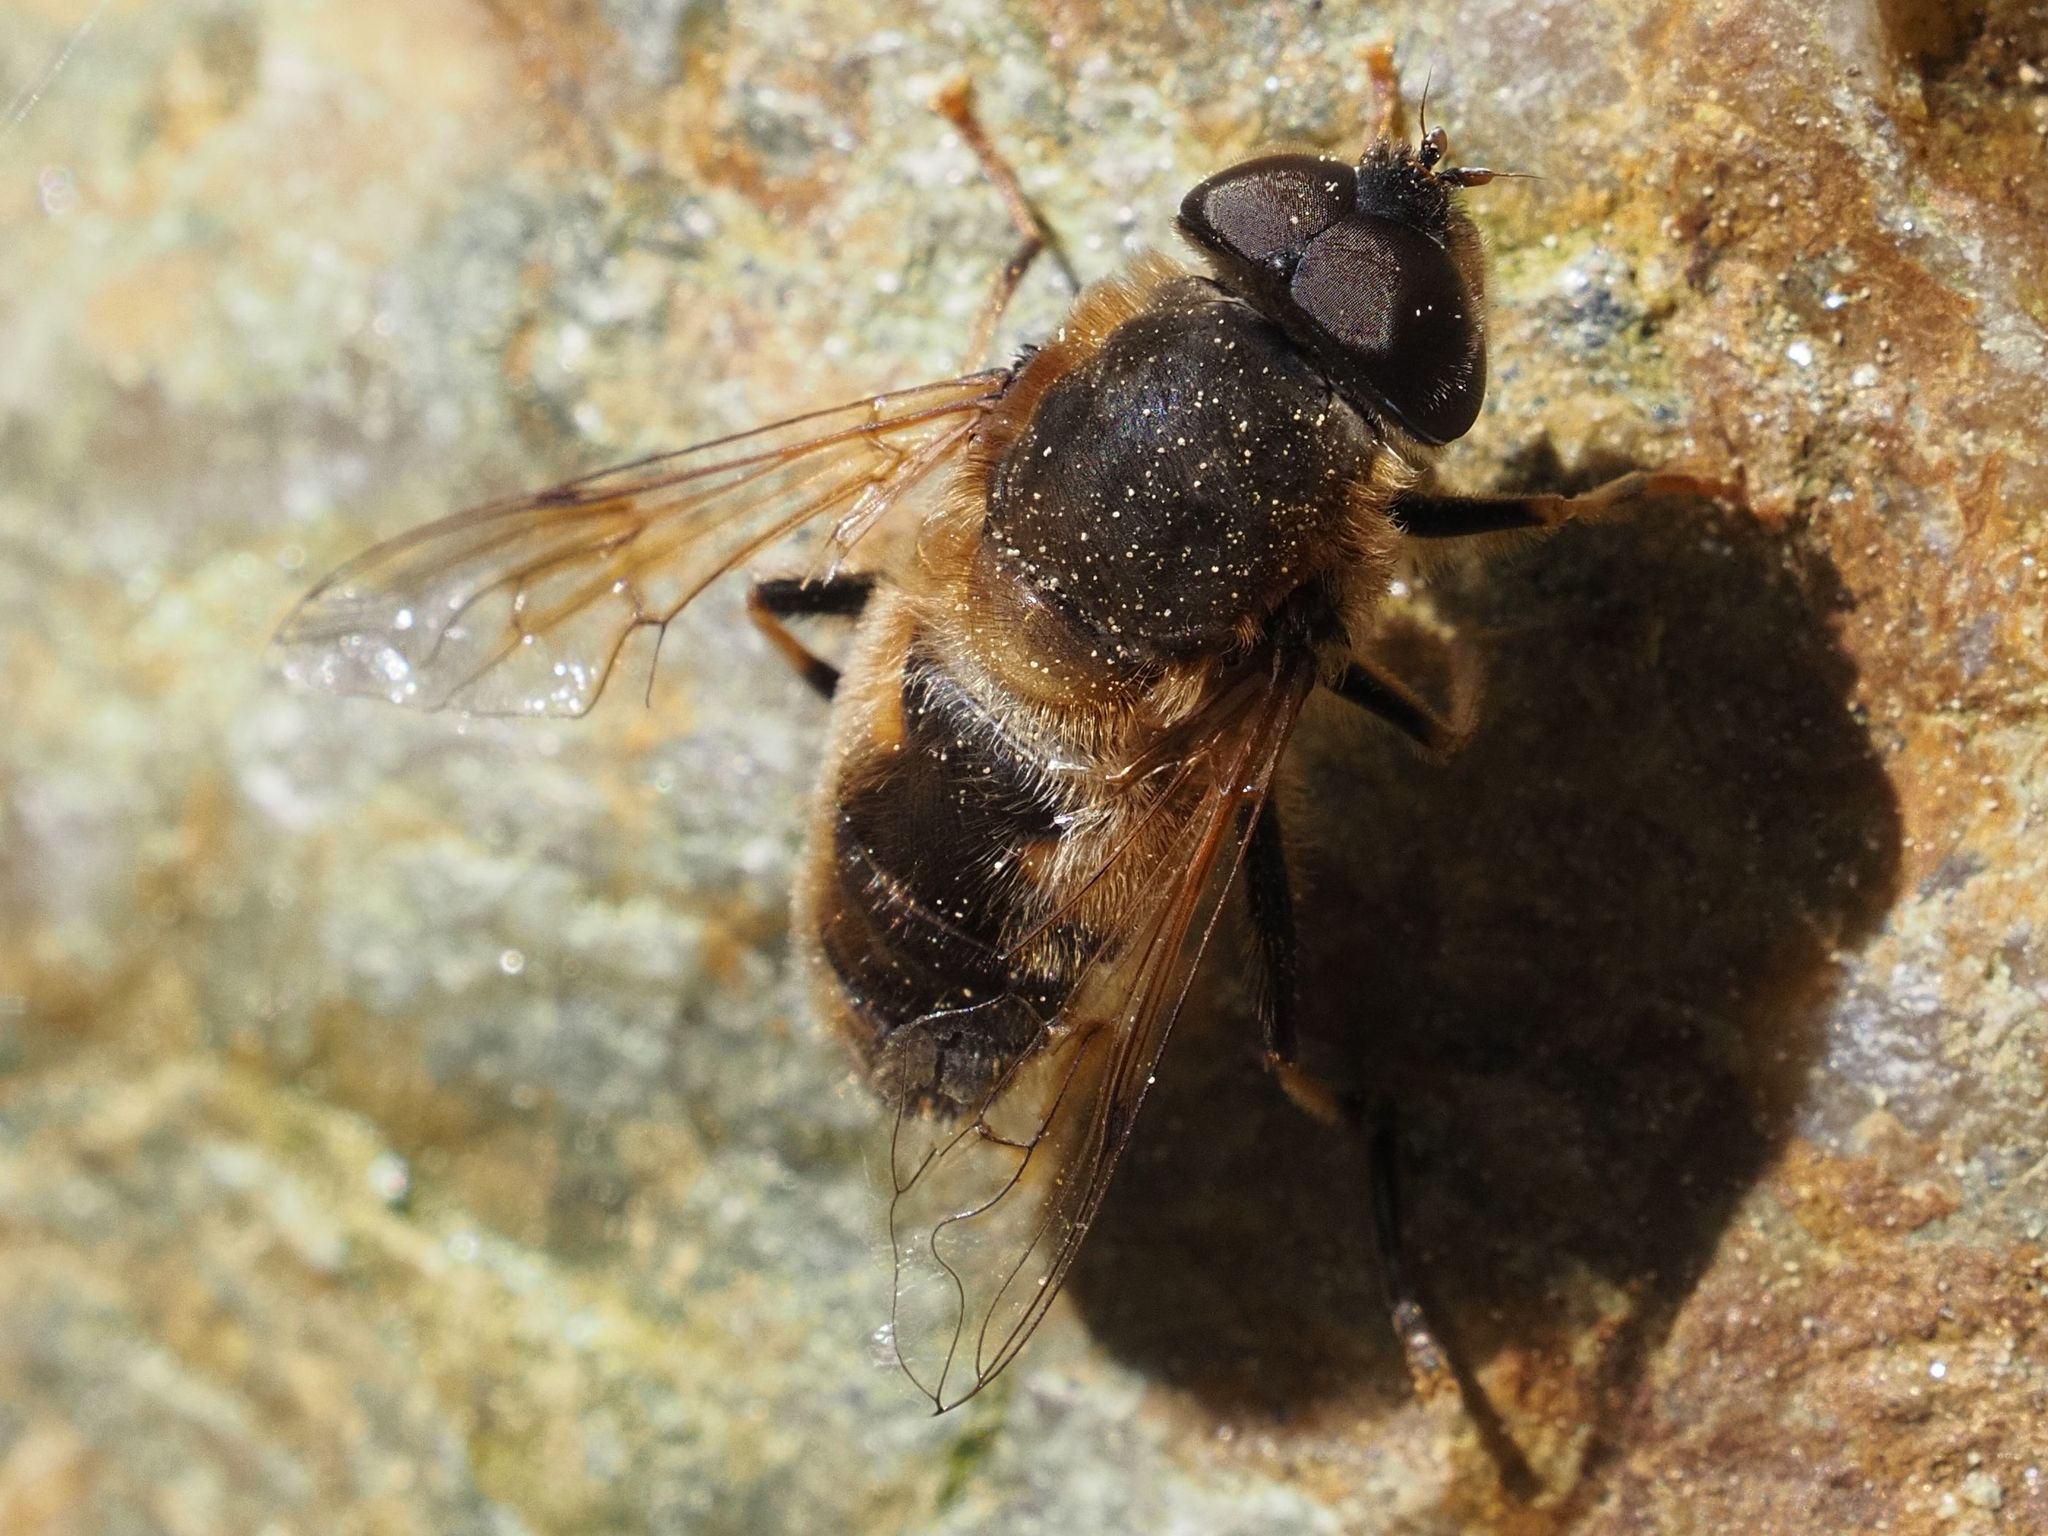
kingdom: Animalia
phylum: Arthropoda
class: Insecta
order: Diptera
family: Syrphidae
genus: Eristalis
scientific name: Eristalis pertinax
